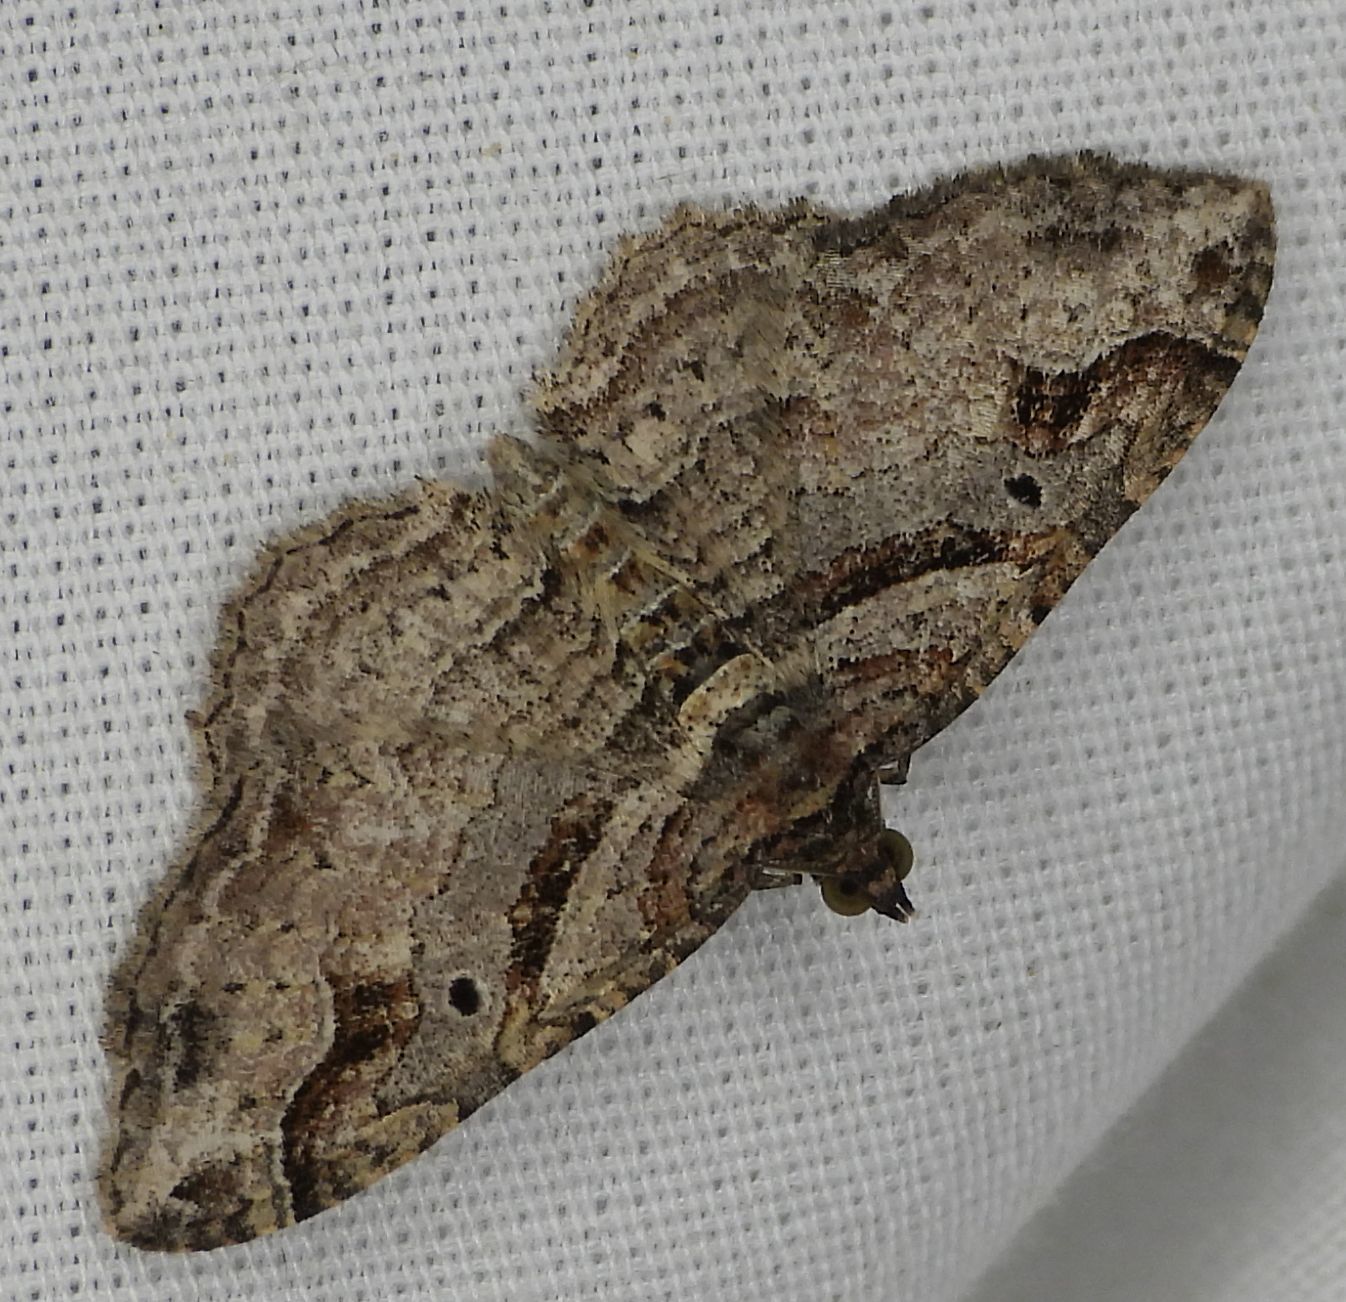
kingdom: Animalia
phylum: Arthropoda
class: Insecta
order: Lepidoptera
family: Geometridae
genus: Costaconvexa
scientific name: Costaconvexa centrostrigaria
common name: Bent-line carpet
